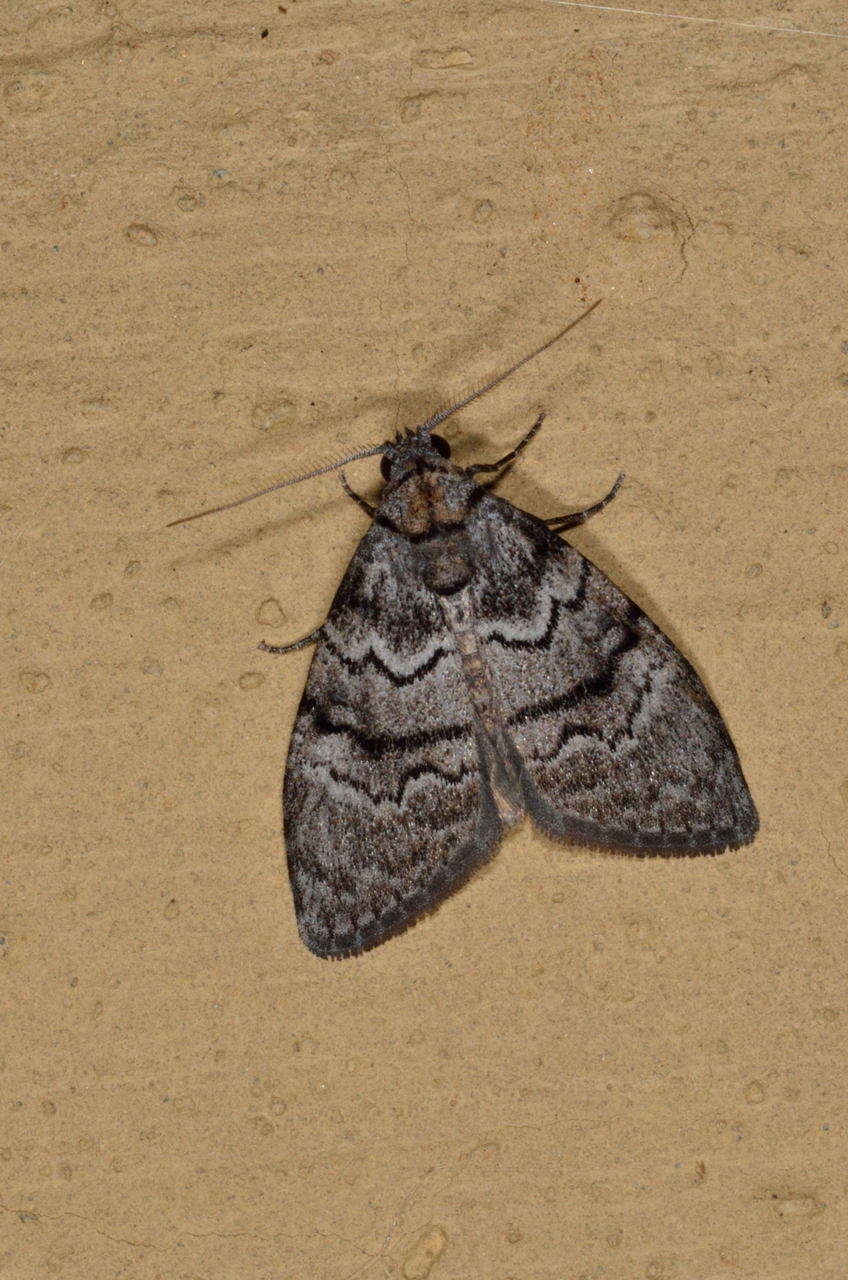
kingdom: Animalia
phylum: Arthropoda
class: Insecta
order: Lepidoptera
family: Nolidae
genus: Uraba
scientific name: Uraba lugens
